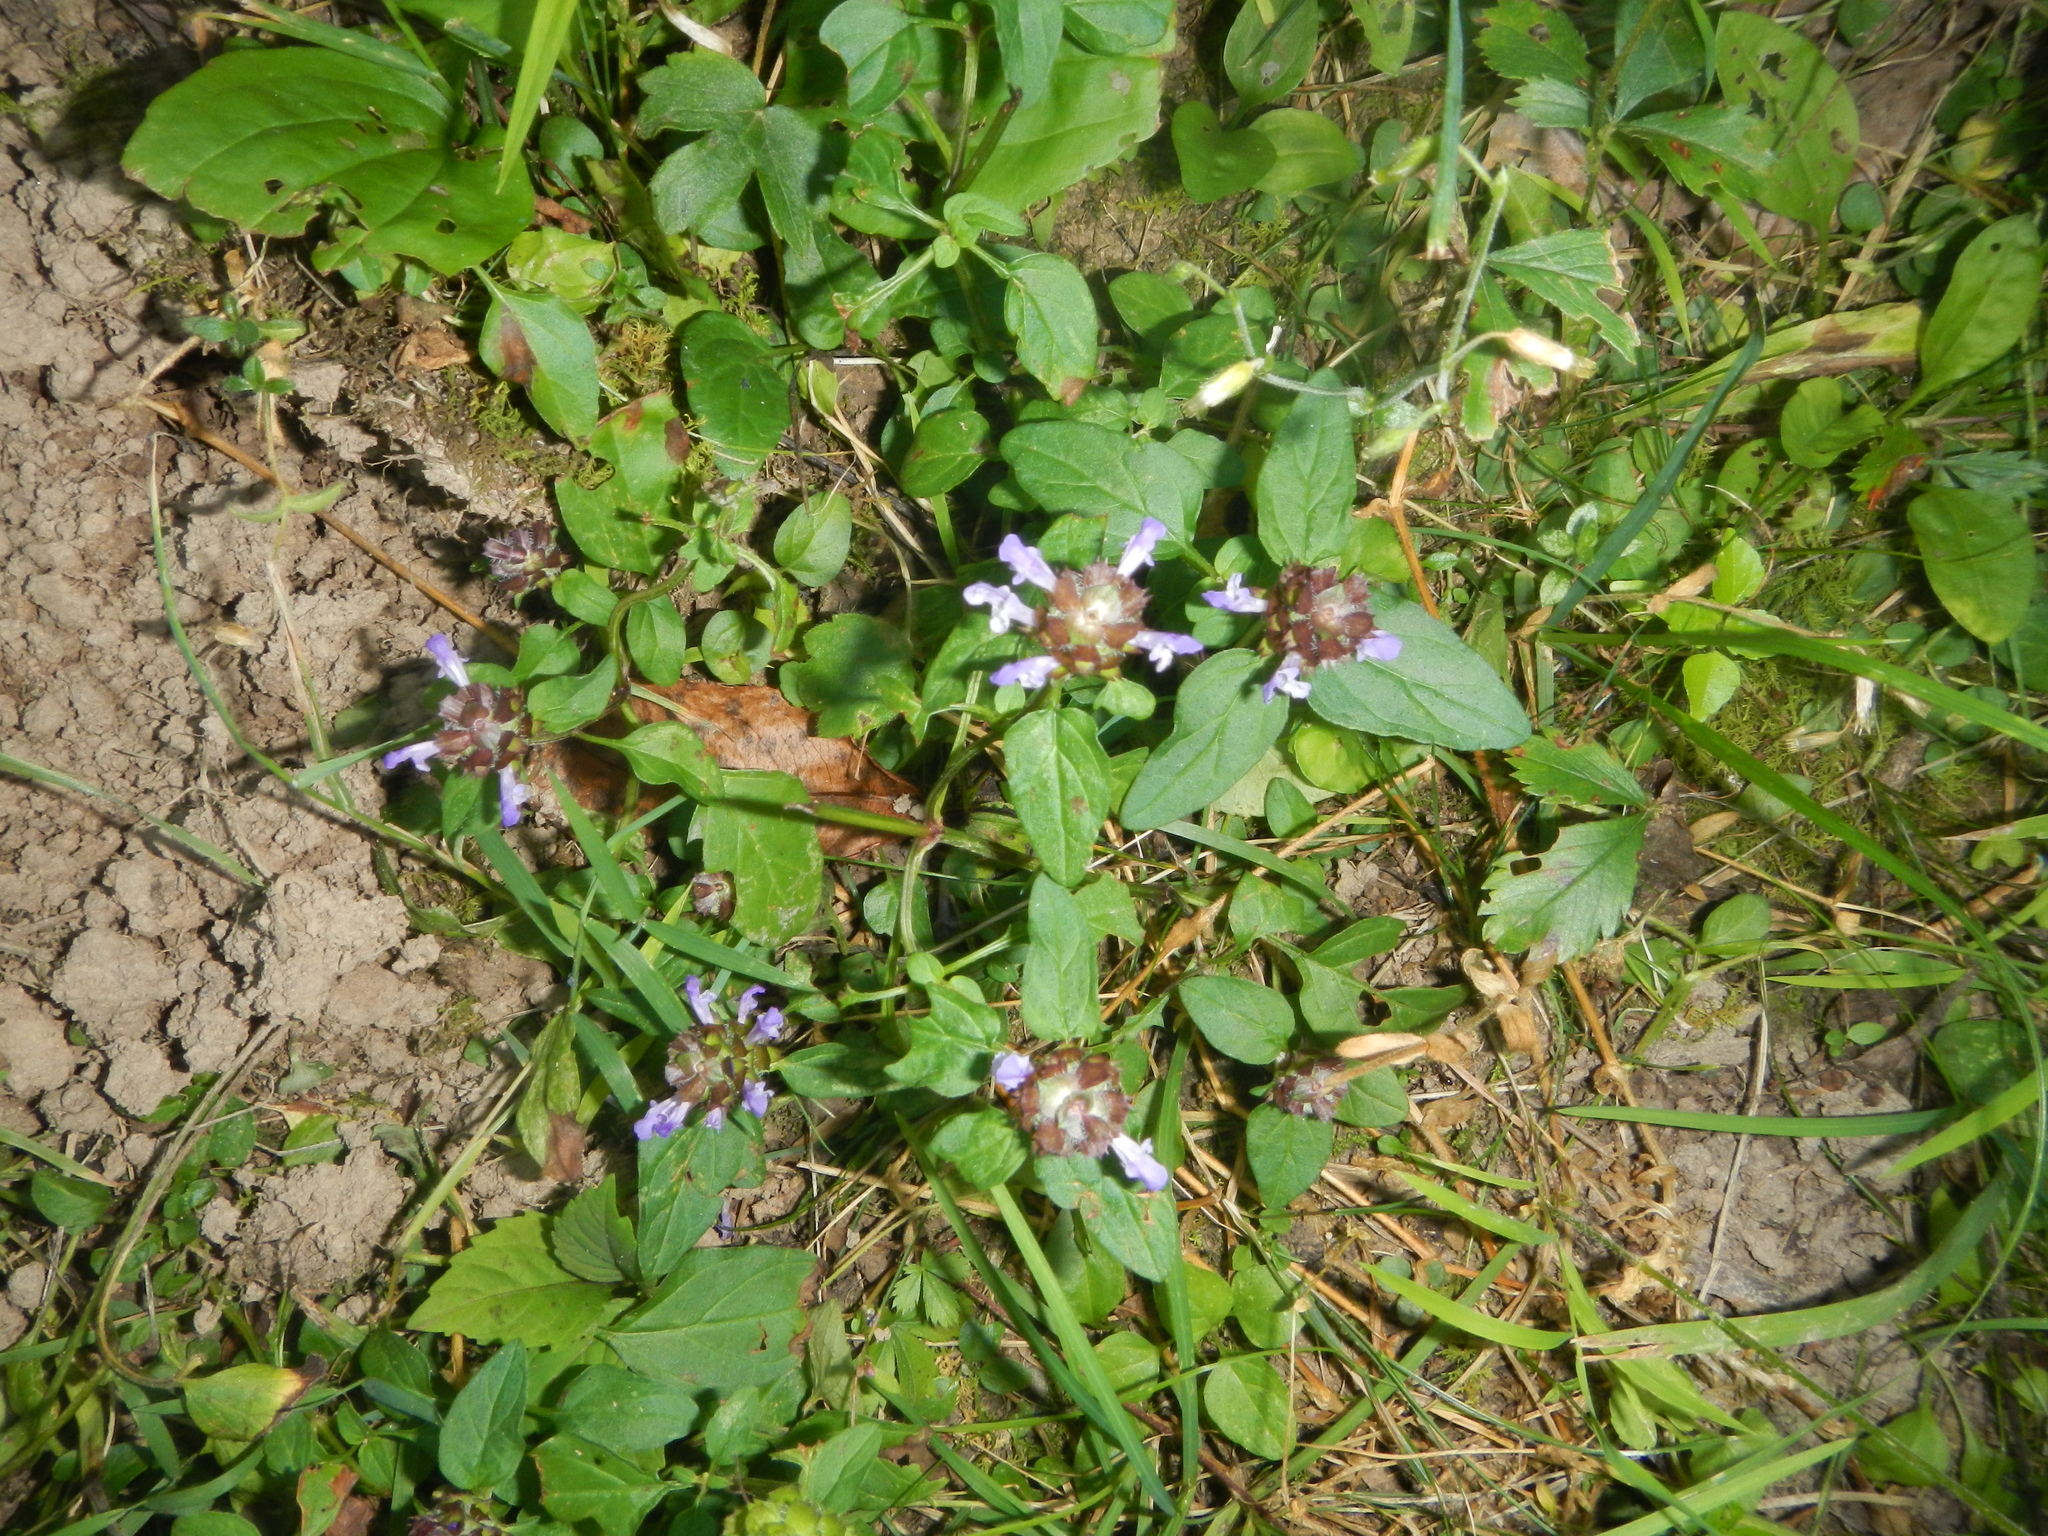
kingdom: Plantae
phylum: Tracheophyta
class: Magnoliopsida
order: Lamiales
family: Lamiaceae
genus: Prunella
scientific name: Prunella vulgaris
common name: Heal-all
